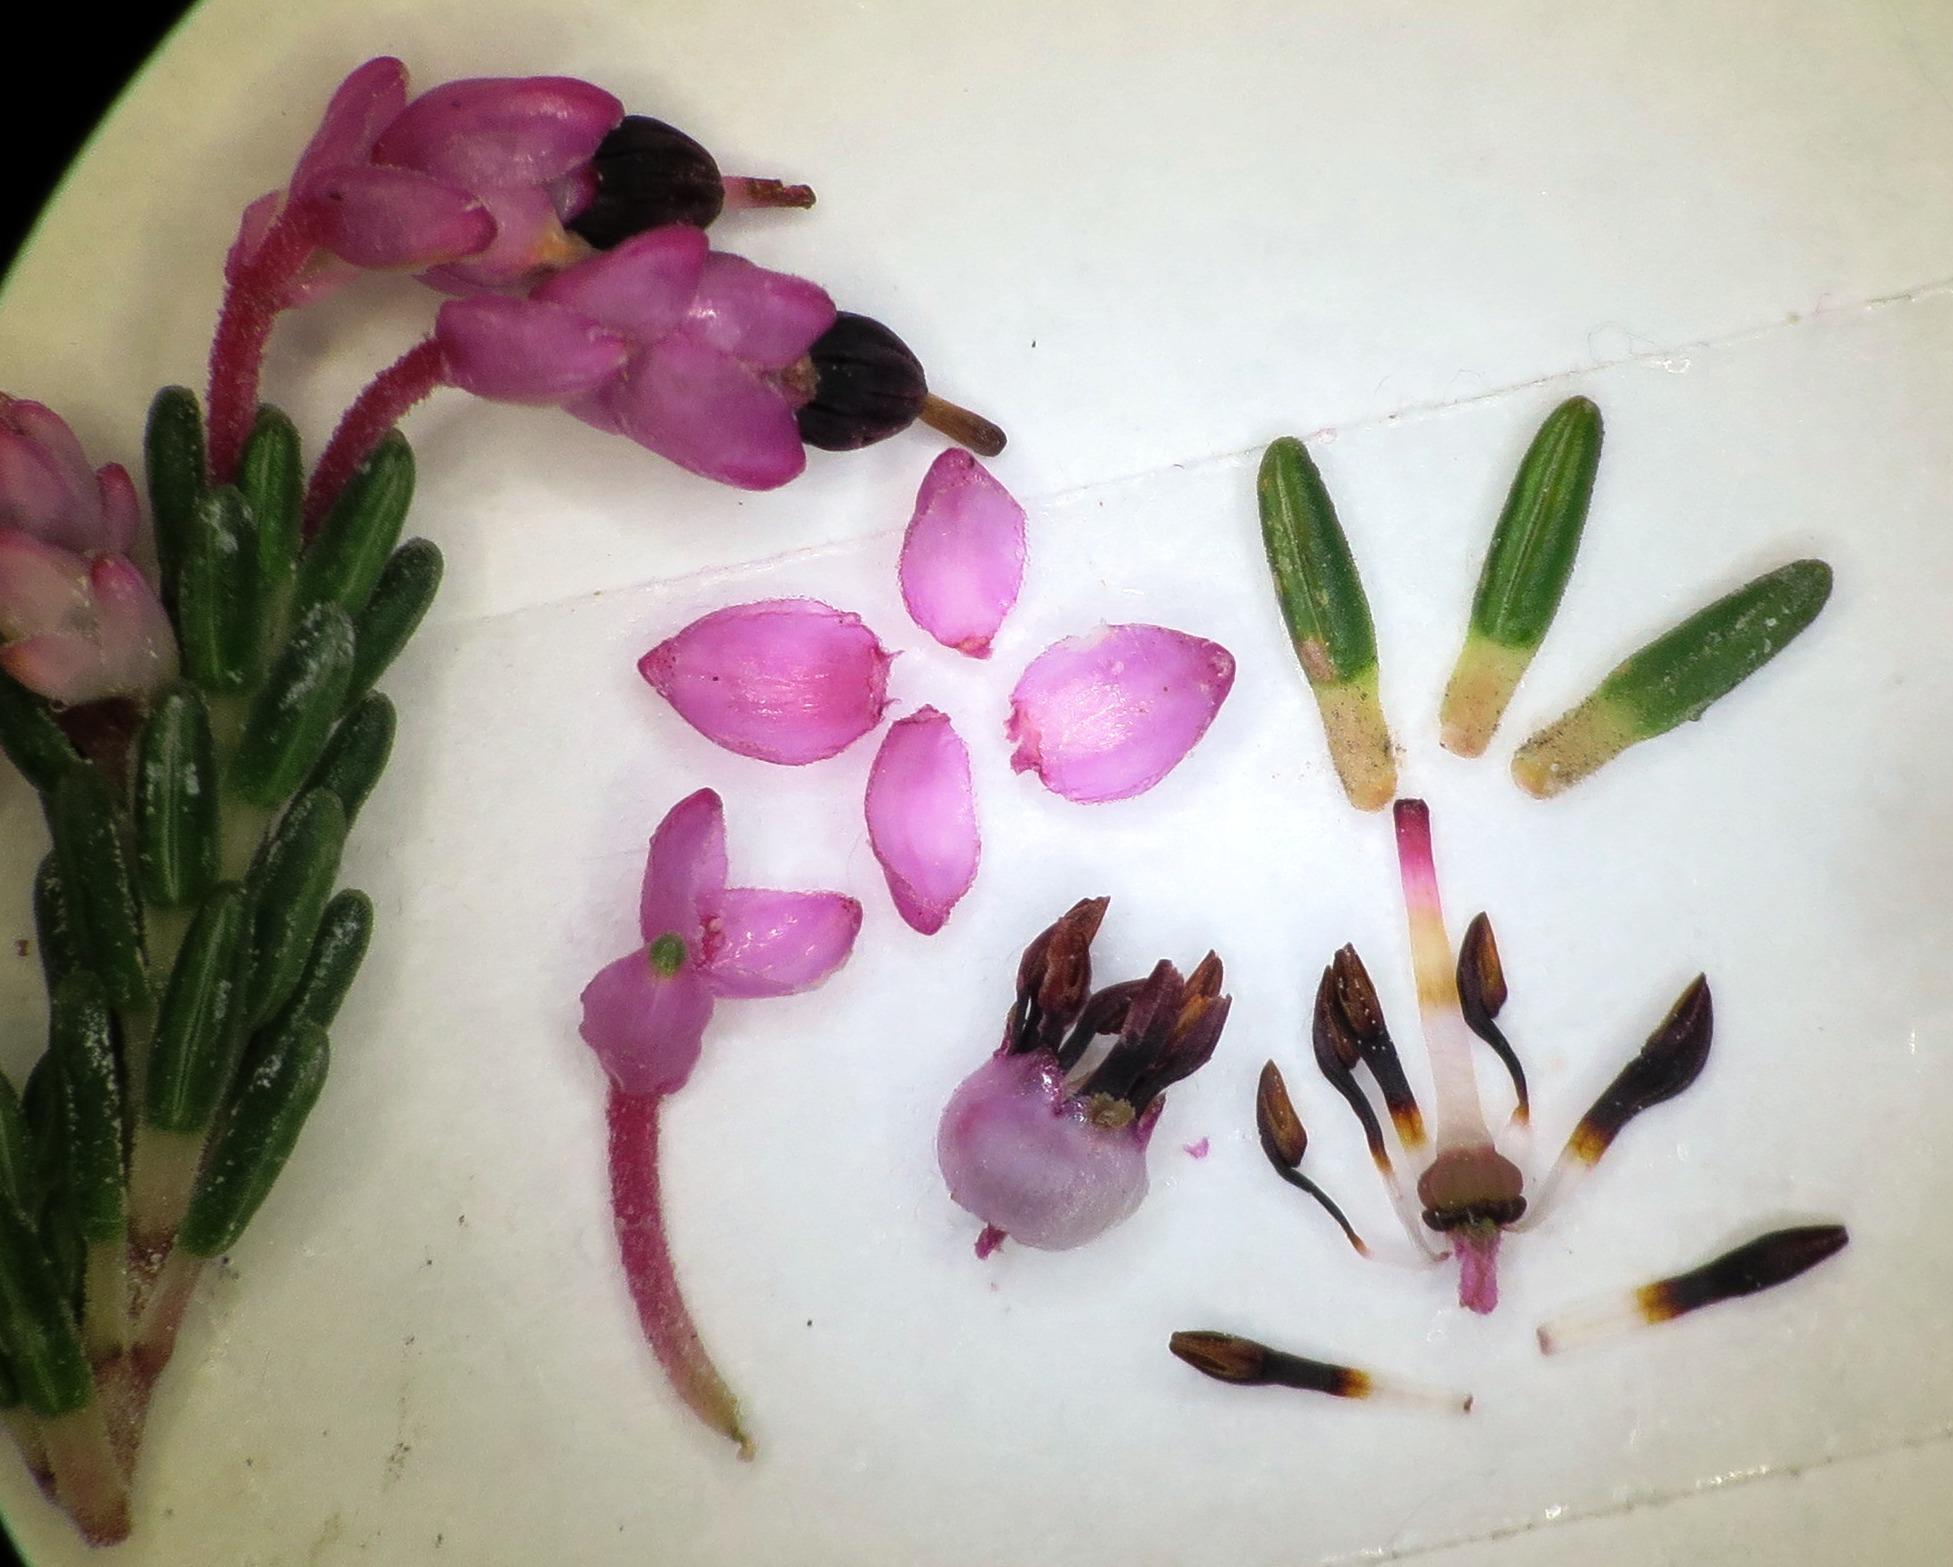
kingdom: Plantae
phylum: Tracheophyta
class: Magnoliopsida
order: Ericales
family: Ericaceae
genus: Erica
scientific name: Erica placentiflora
